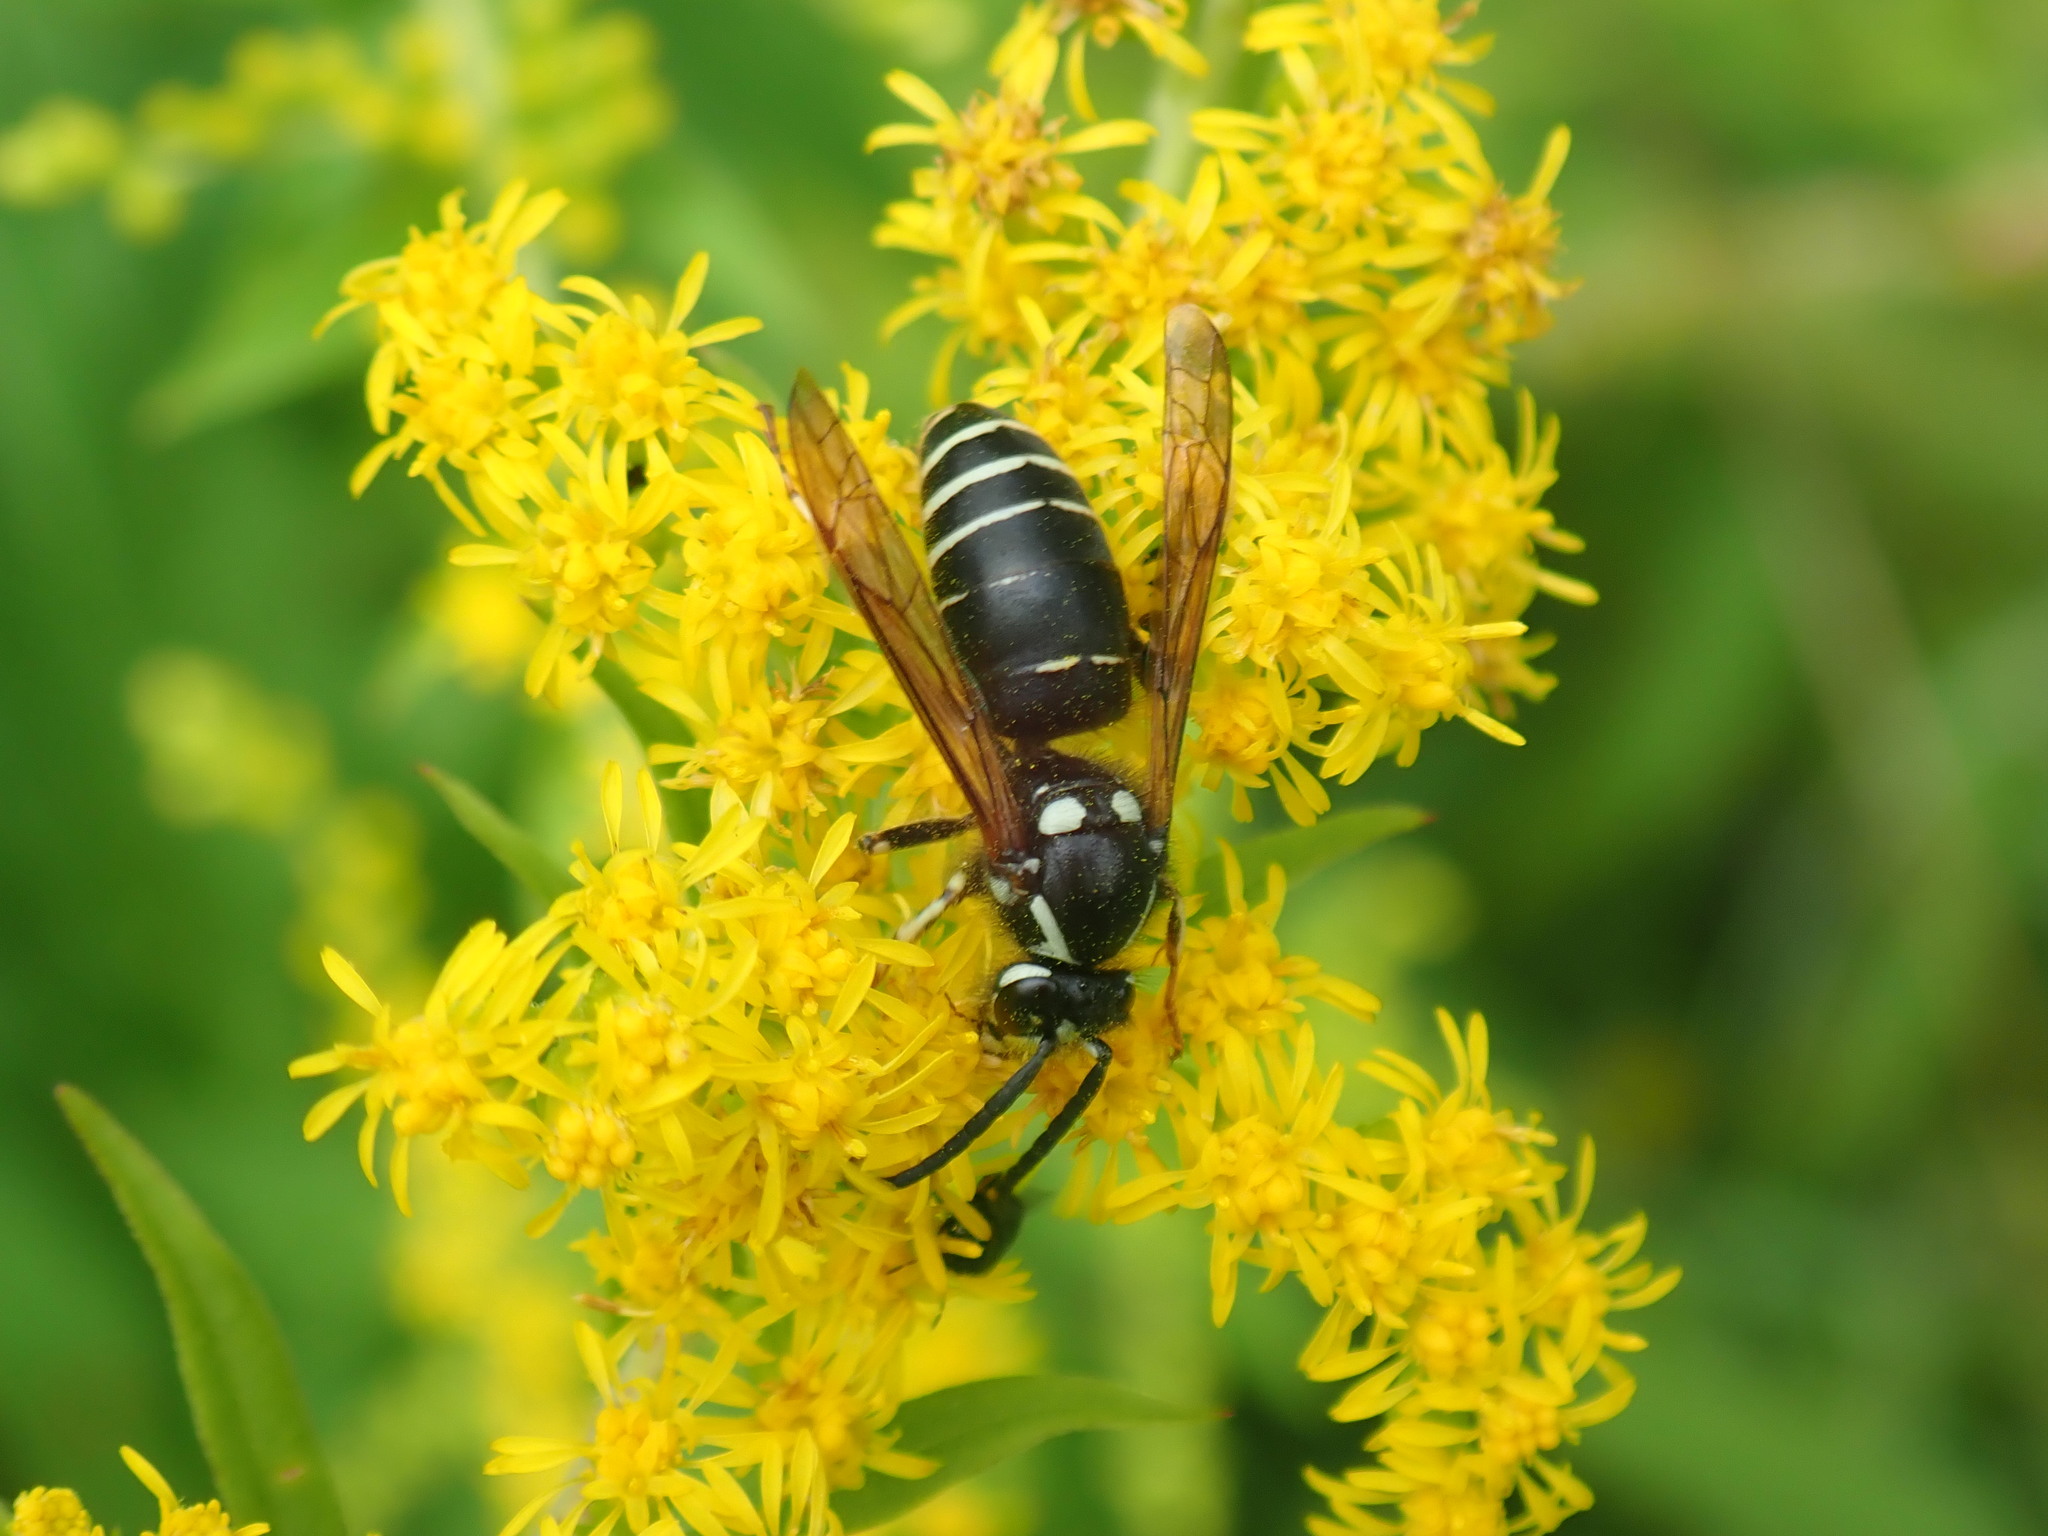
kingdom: Animalia
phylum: Arthropoda
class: Insecta
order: Hymenoptera
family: Vespidae
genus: Dolichovespula
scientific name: Dolichovespula adulterina
